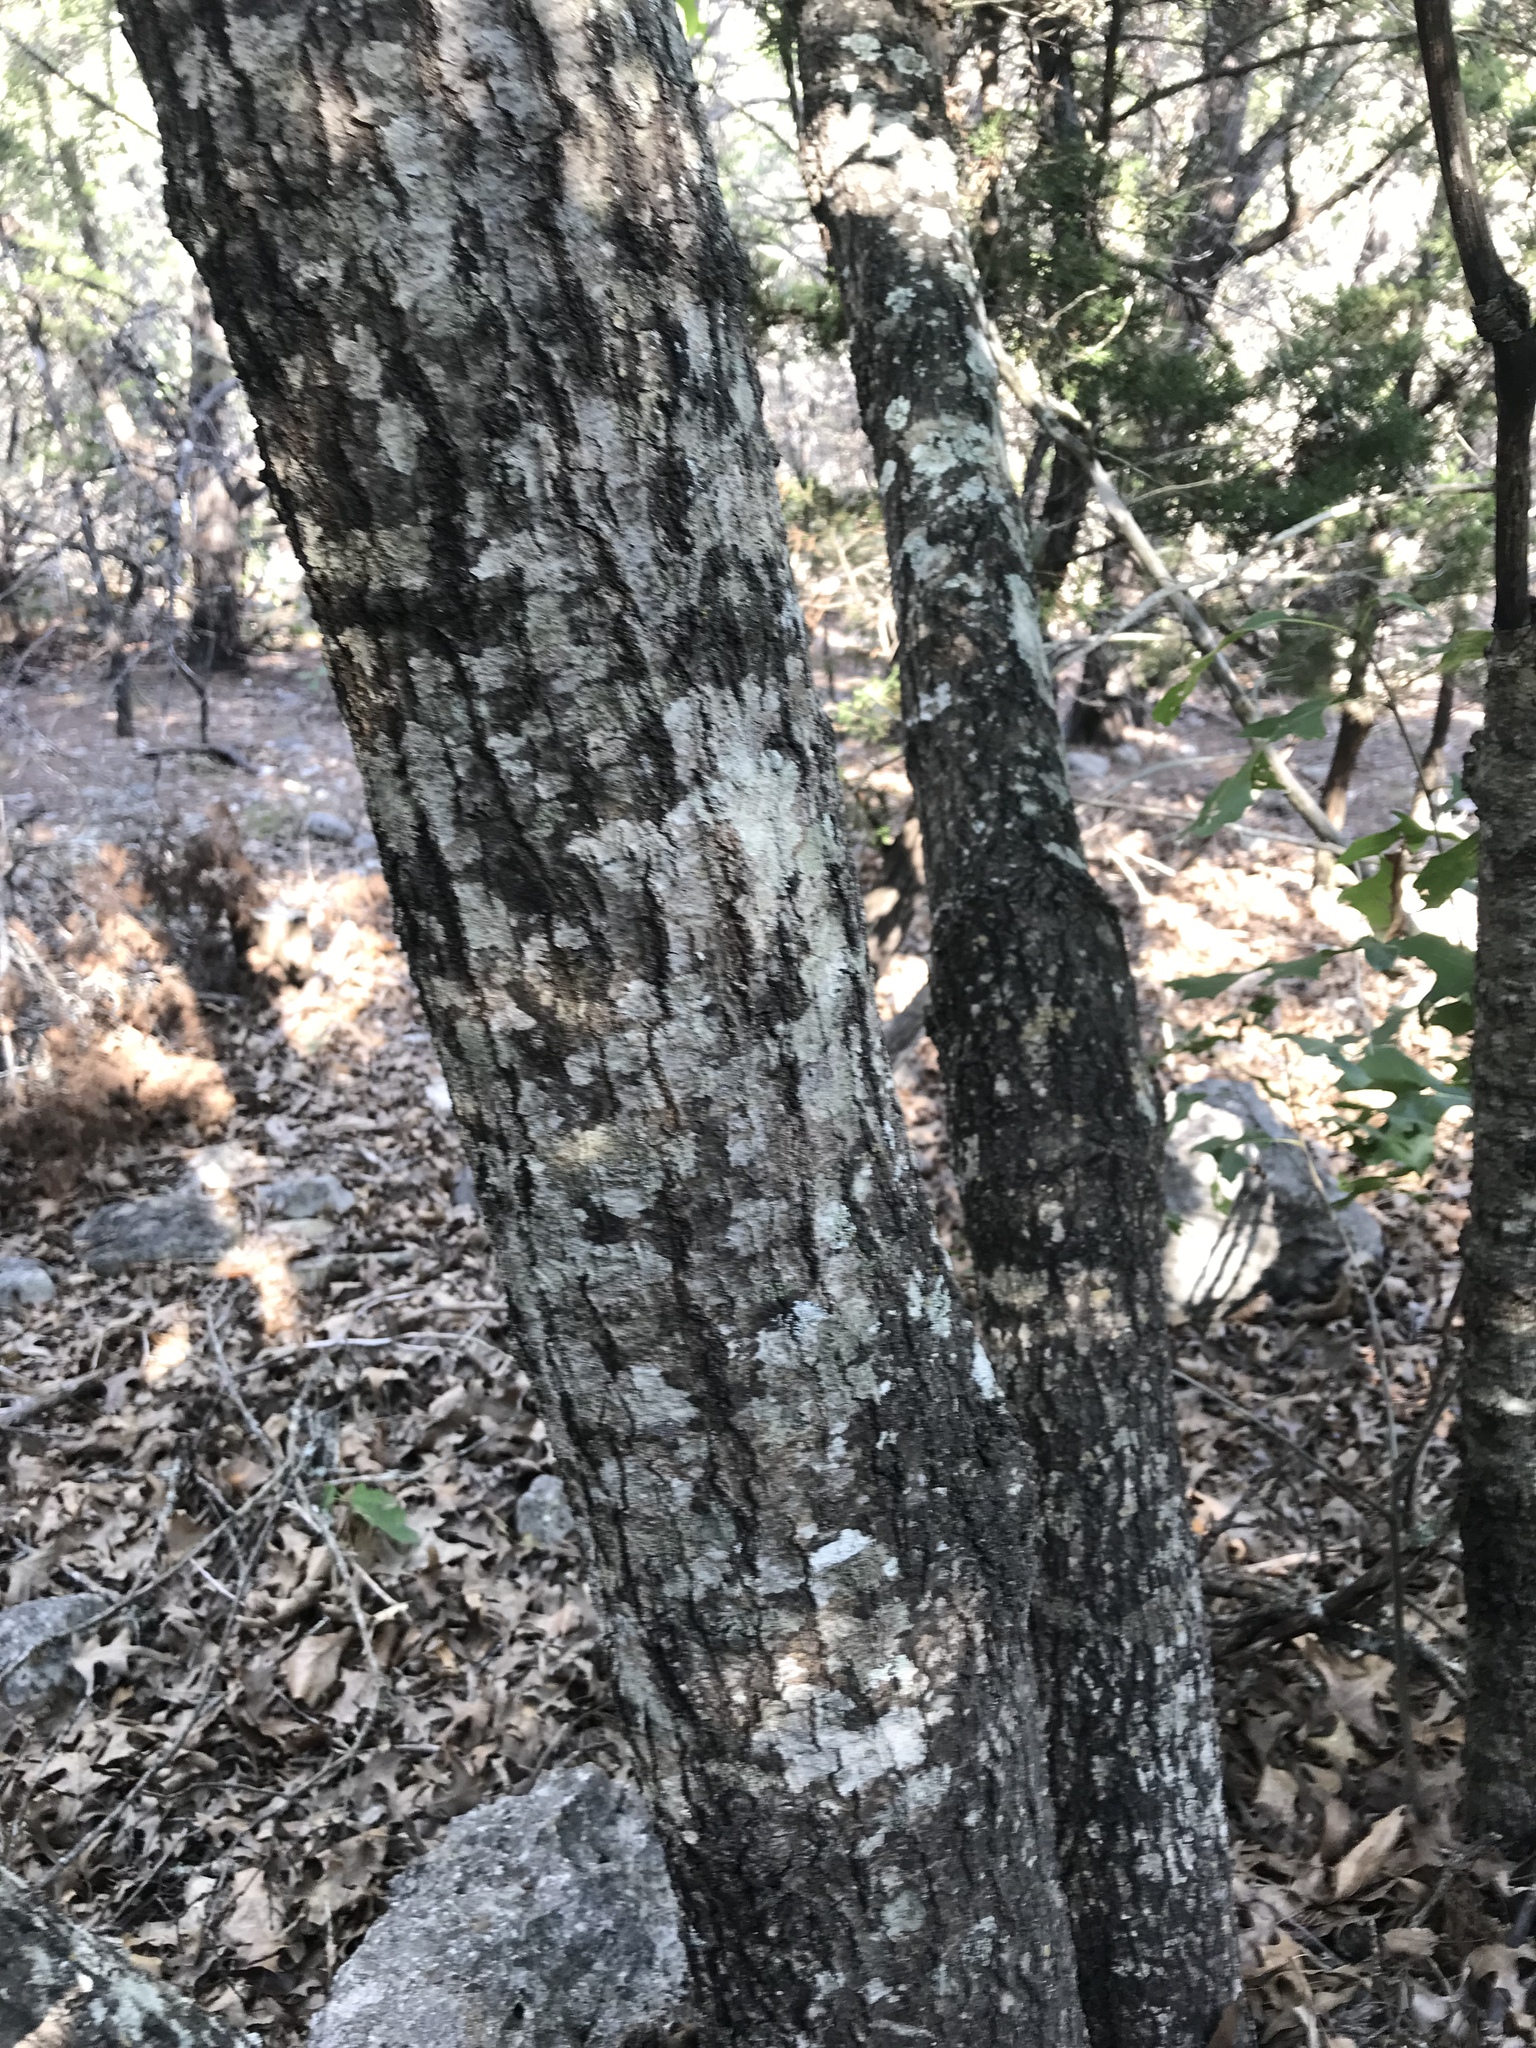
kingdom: Plantae
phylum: Tracheophyta
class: Magnoliopsida
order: Fagales
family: Fagaceae
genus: Quercus
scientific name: Quercus buckleyi
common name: Buckley oak
